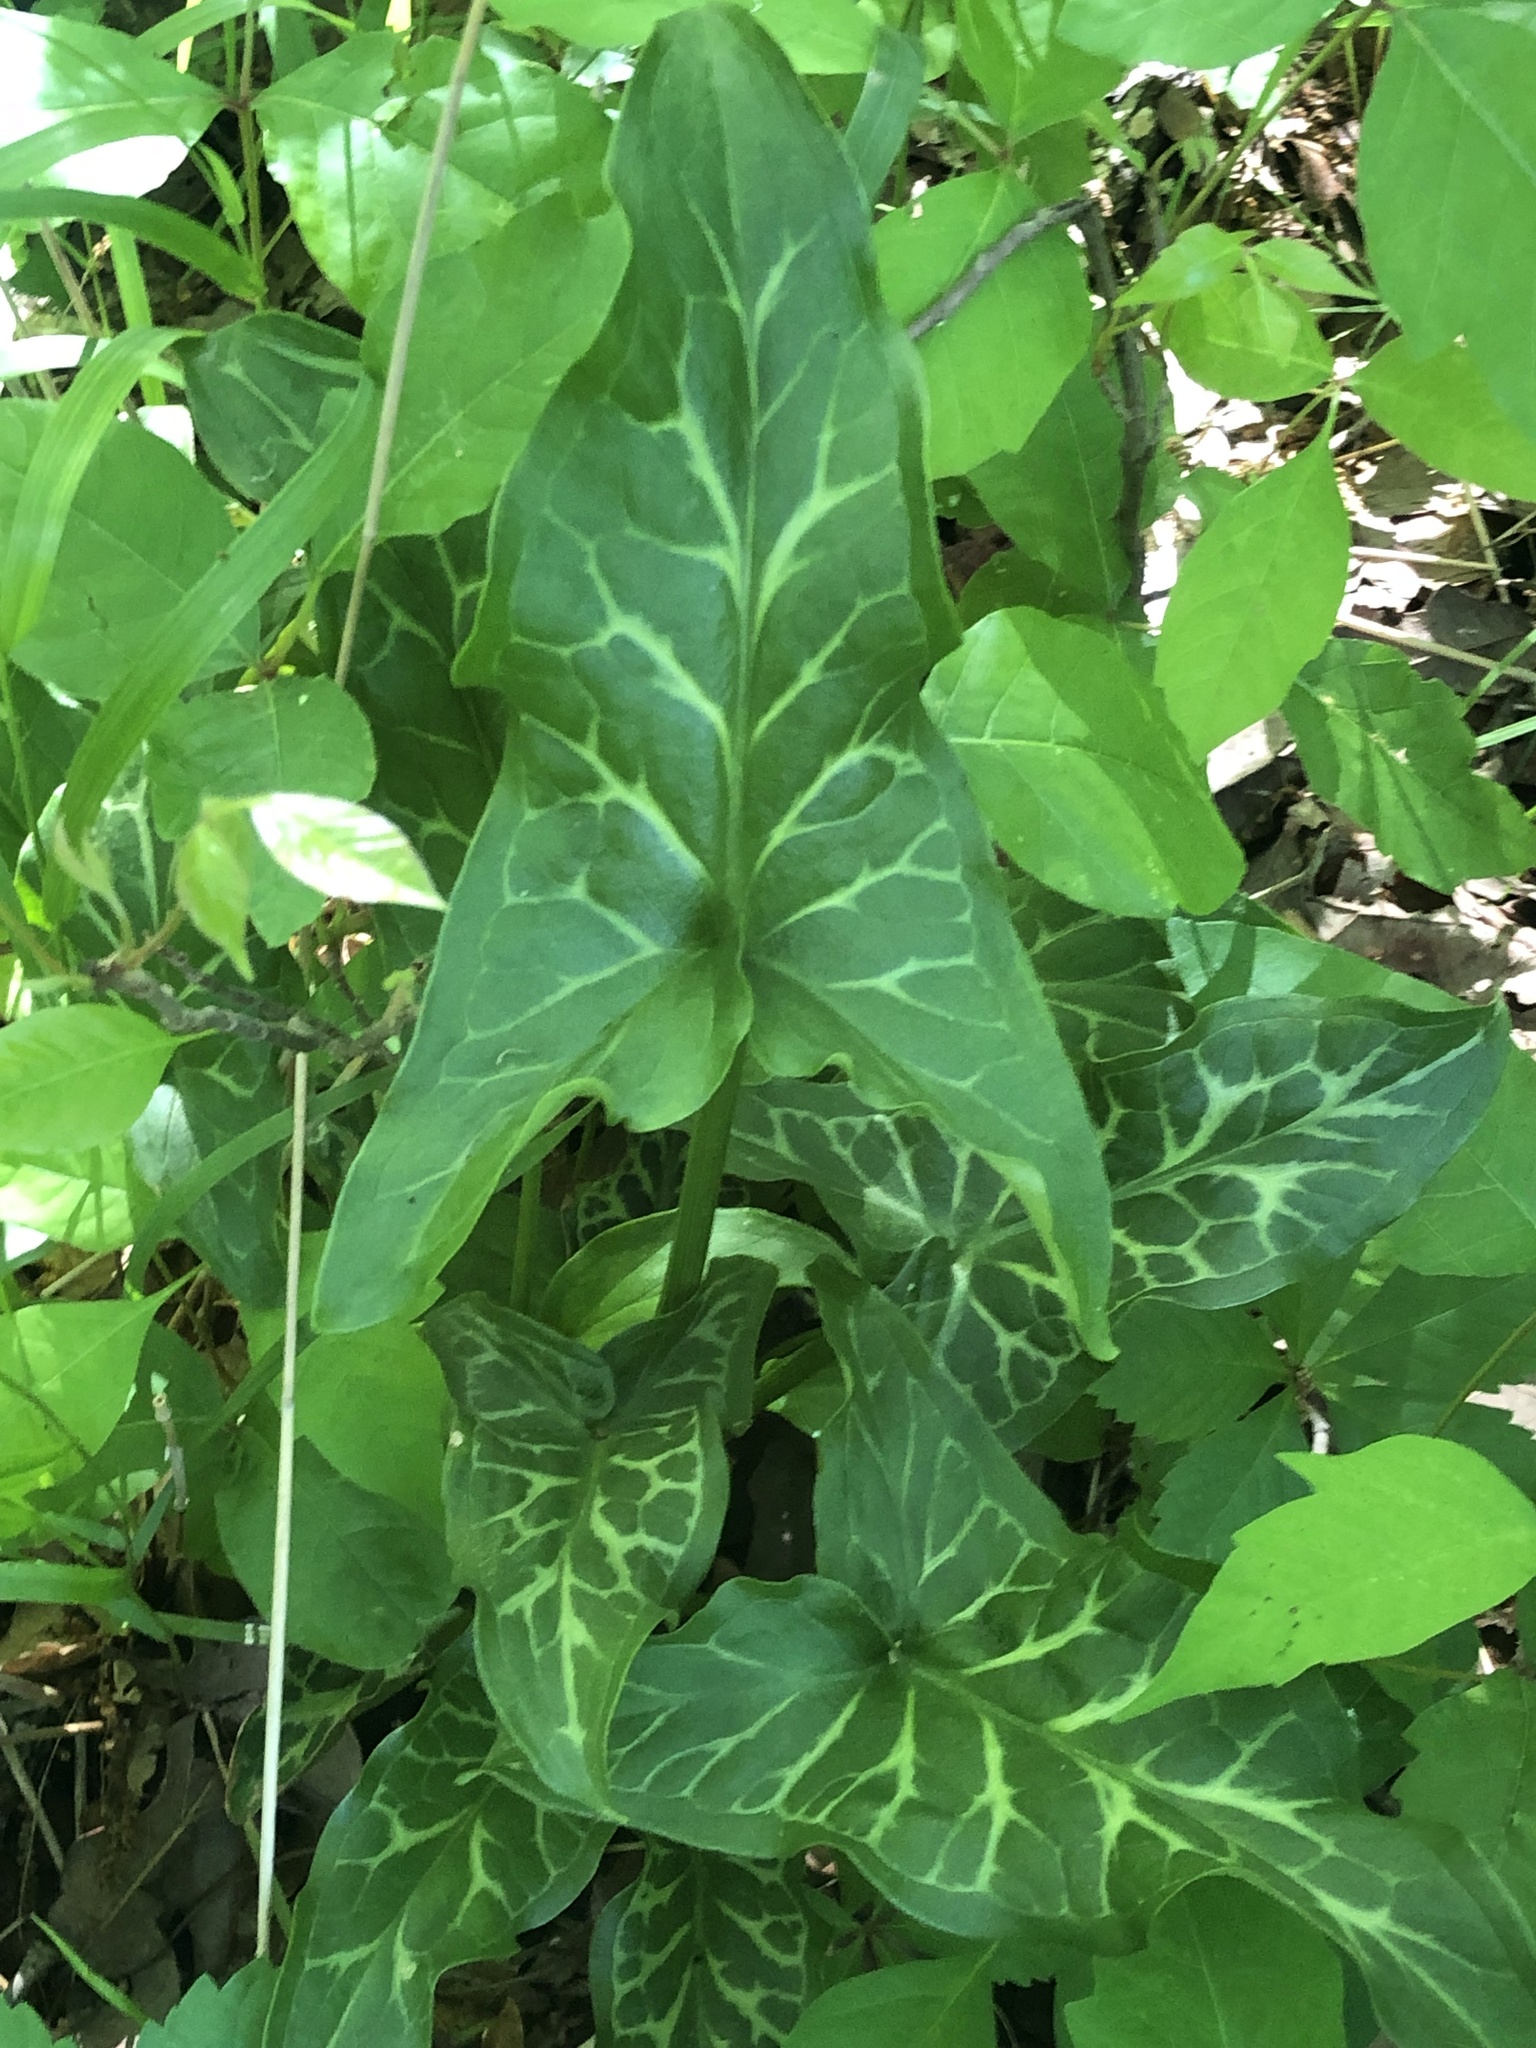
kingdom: Plantae
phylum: Tracheophyta
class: Liliopsida
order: Alismatales
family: Araceae
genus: Arum
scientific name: Arum italicum
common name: Italian lords-and-ladies
